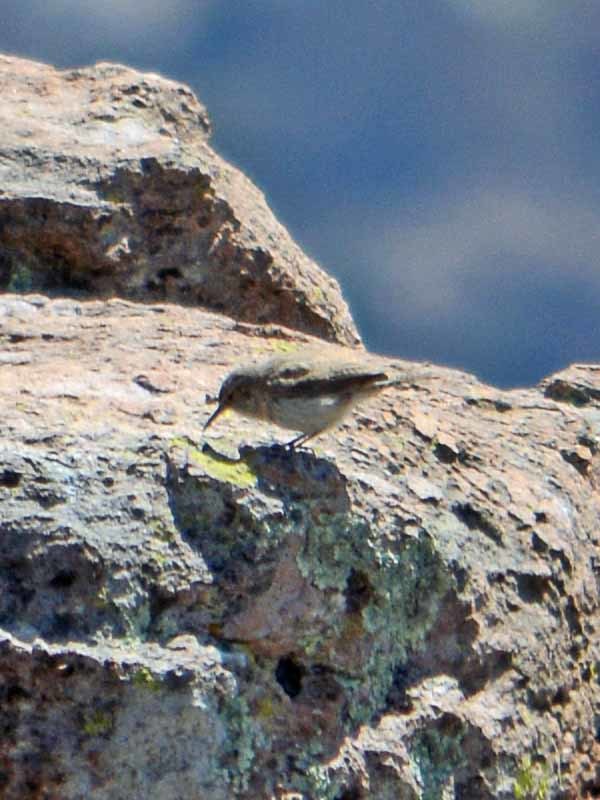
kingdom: Animalia
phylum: Chordata
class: Aves
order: Passeriformes
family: Troglodytidae
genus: Salpinctes
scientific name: Salpinctes obsoletus
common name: Rock wren
